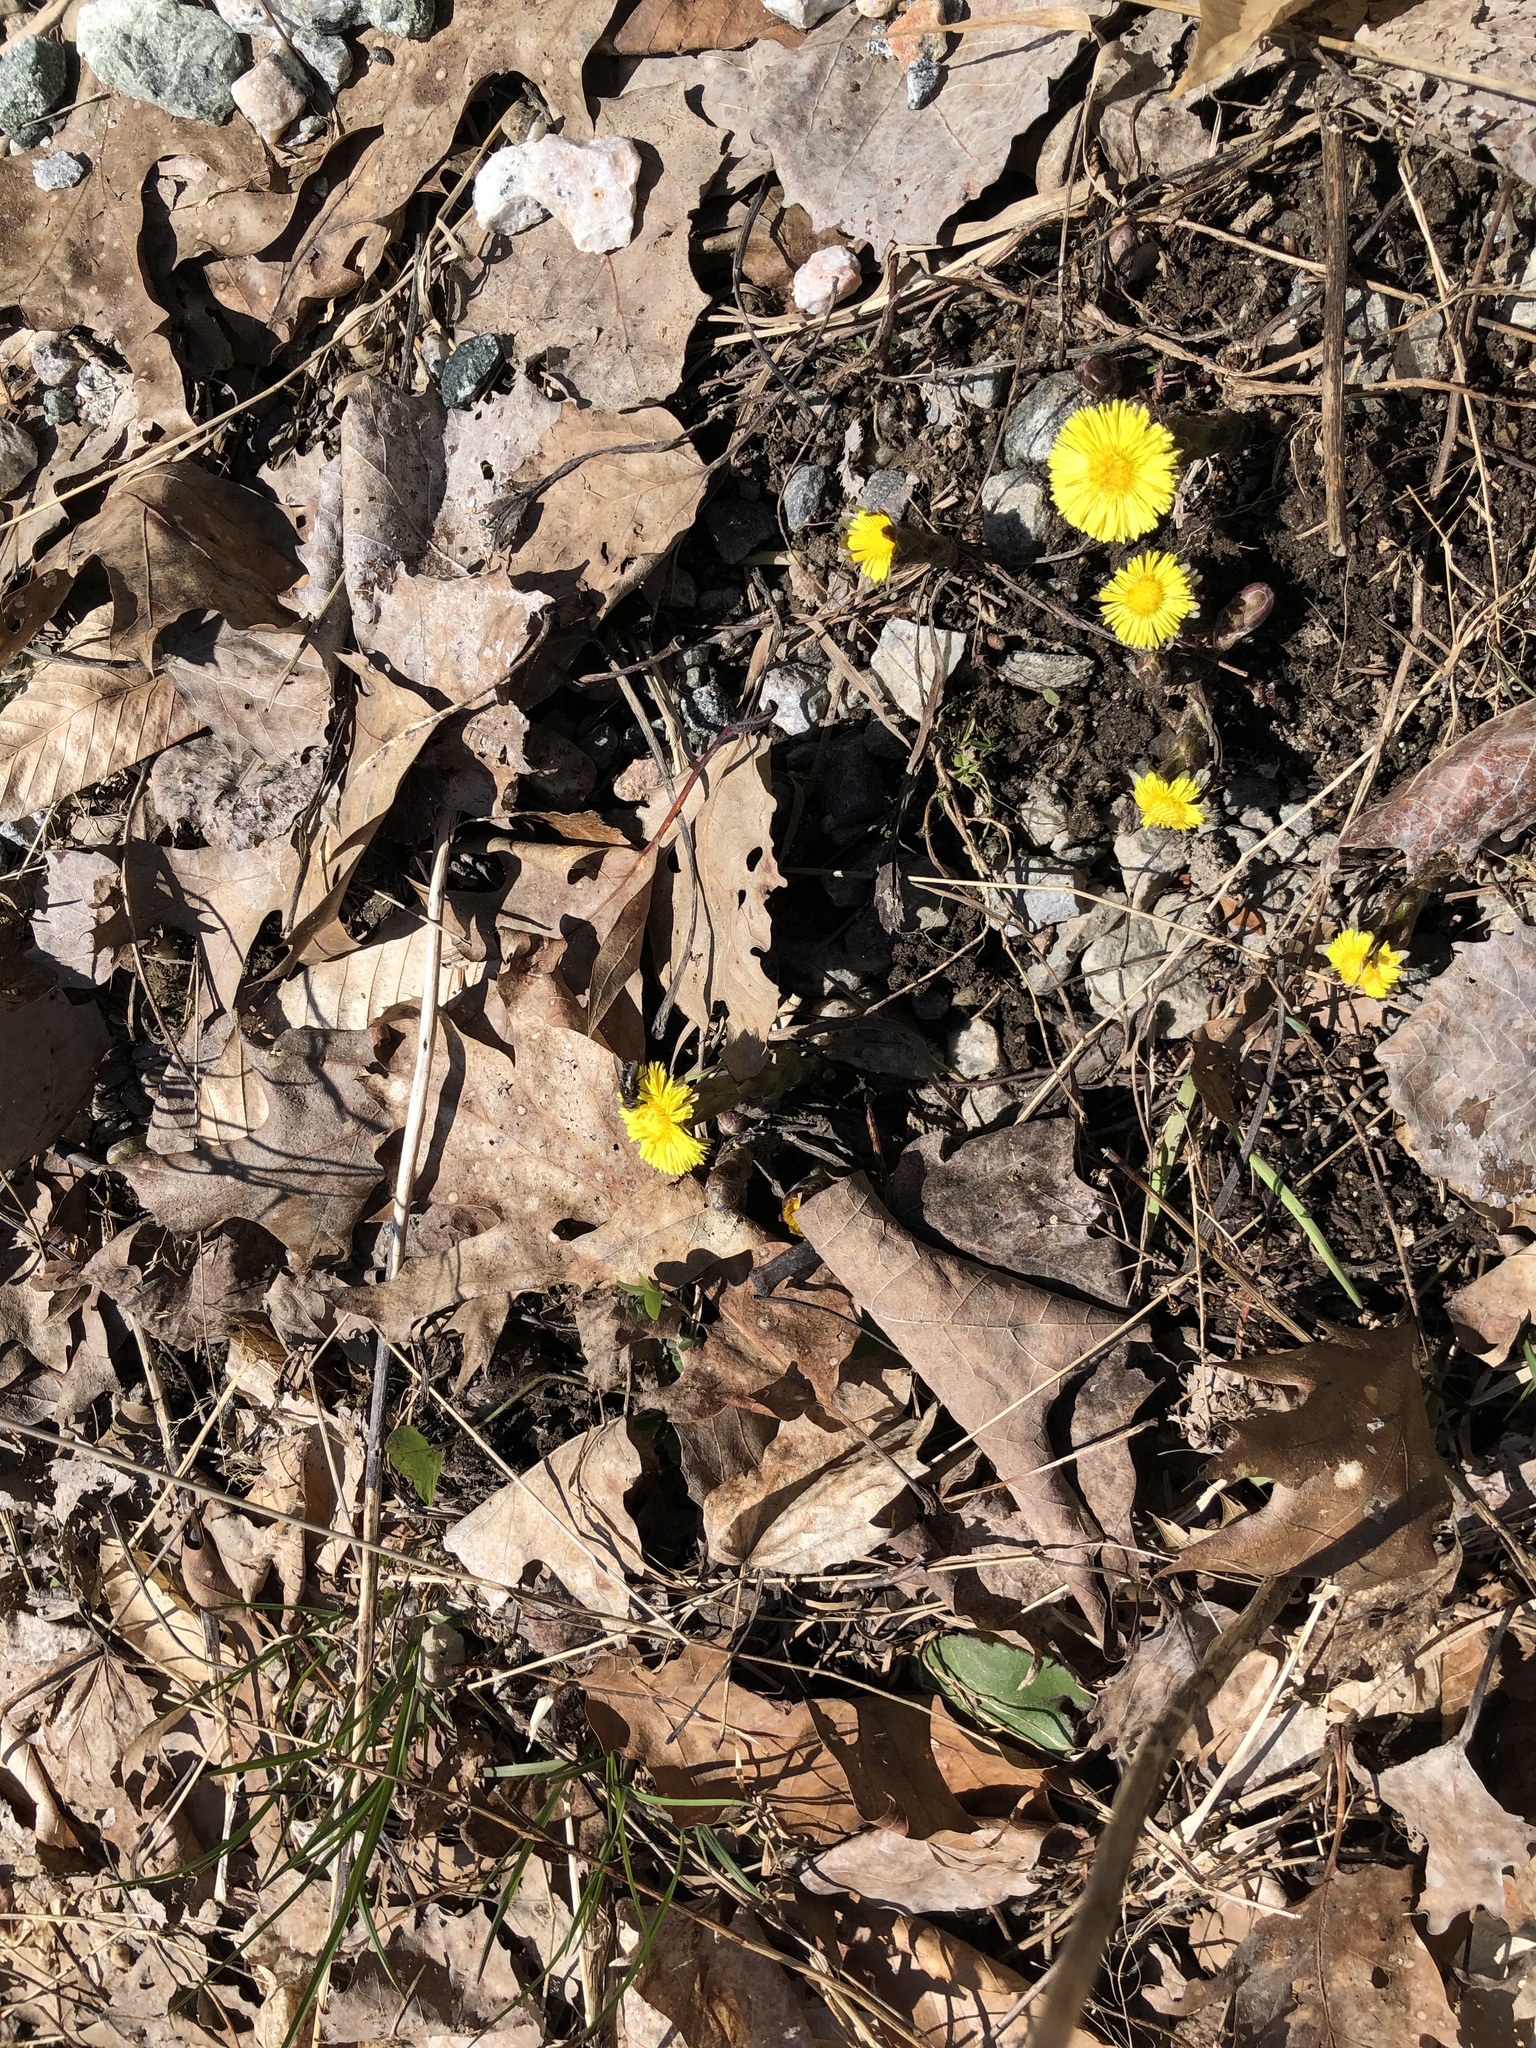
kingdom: Plantae
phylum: Tracheophyta
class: Magnoliopsida
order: Asterales
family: Asteraceae
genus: Tussilago
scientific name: Tussilago farfara
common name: Coltsfoot
